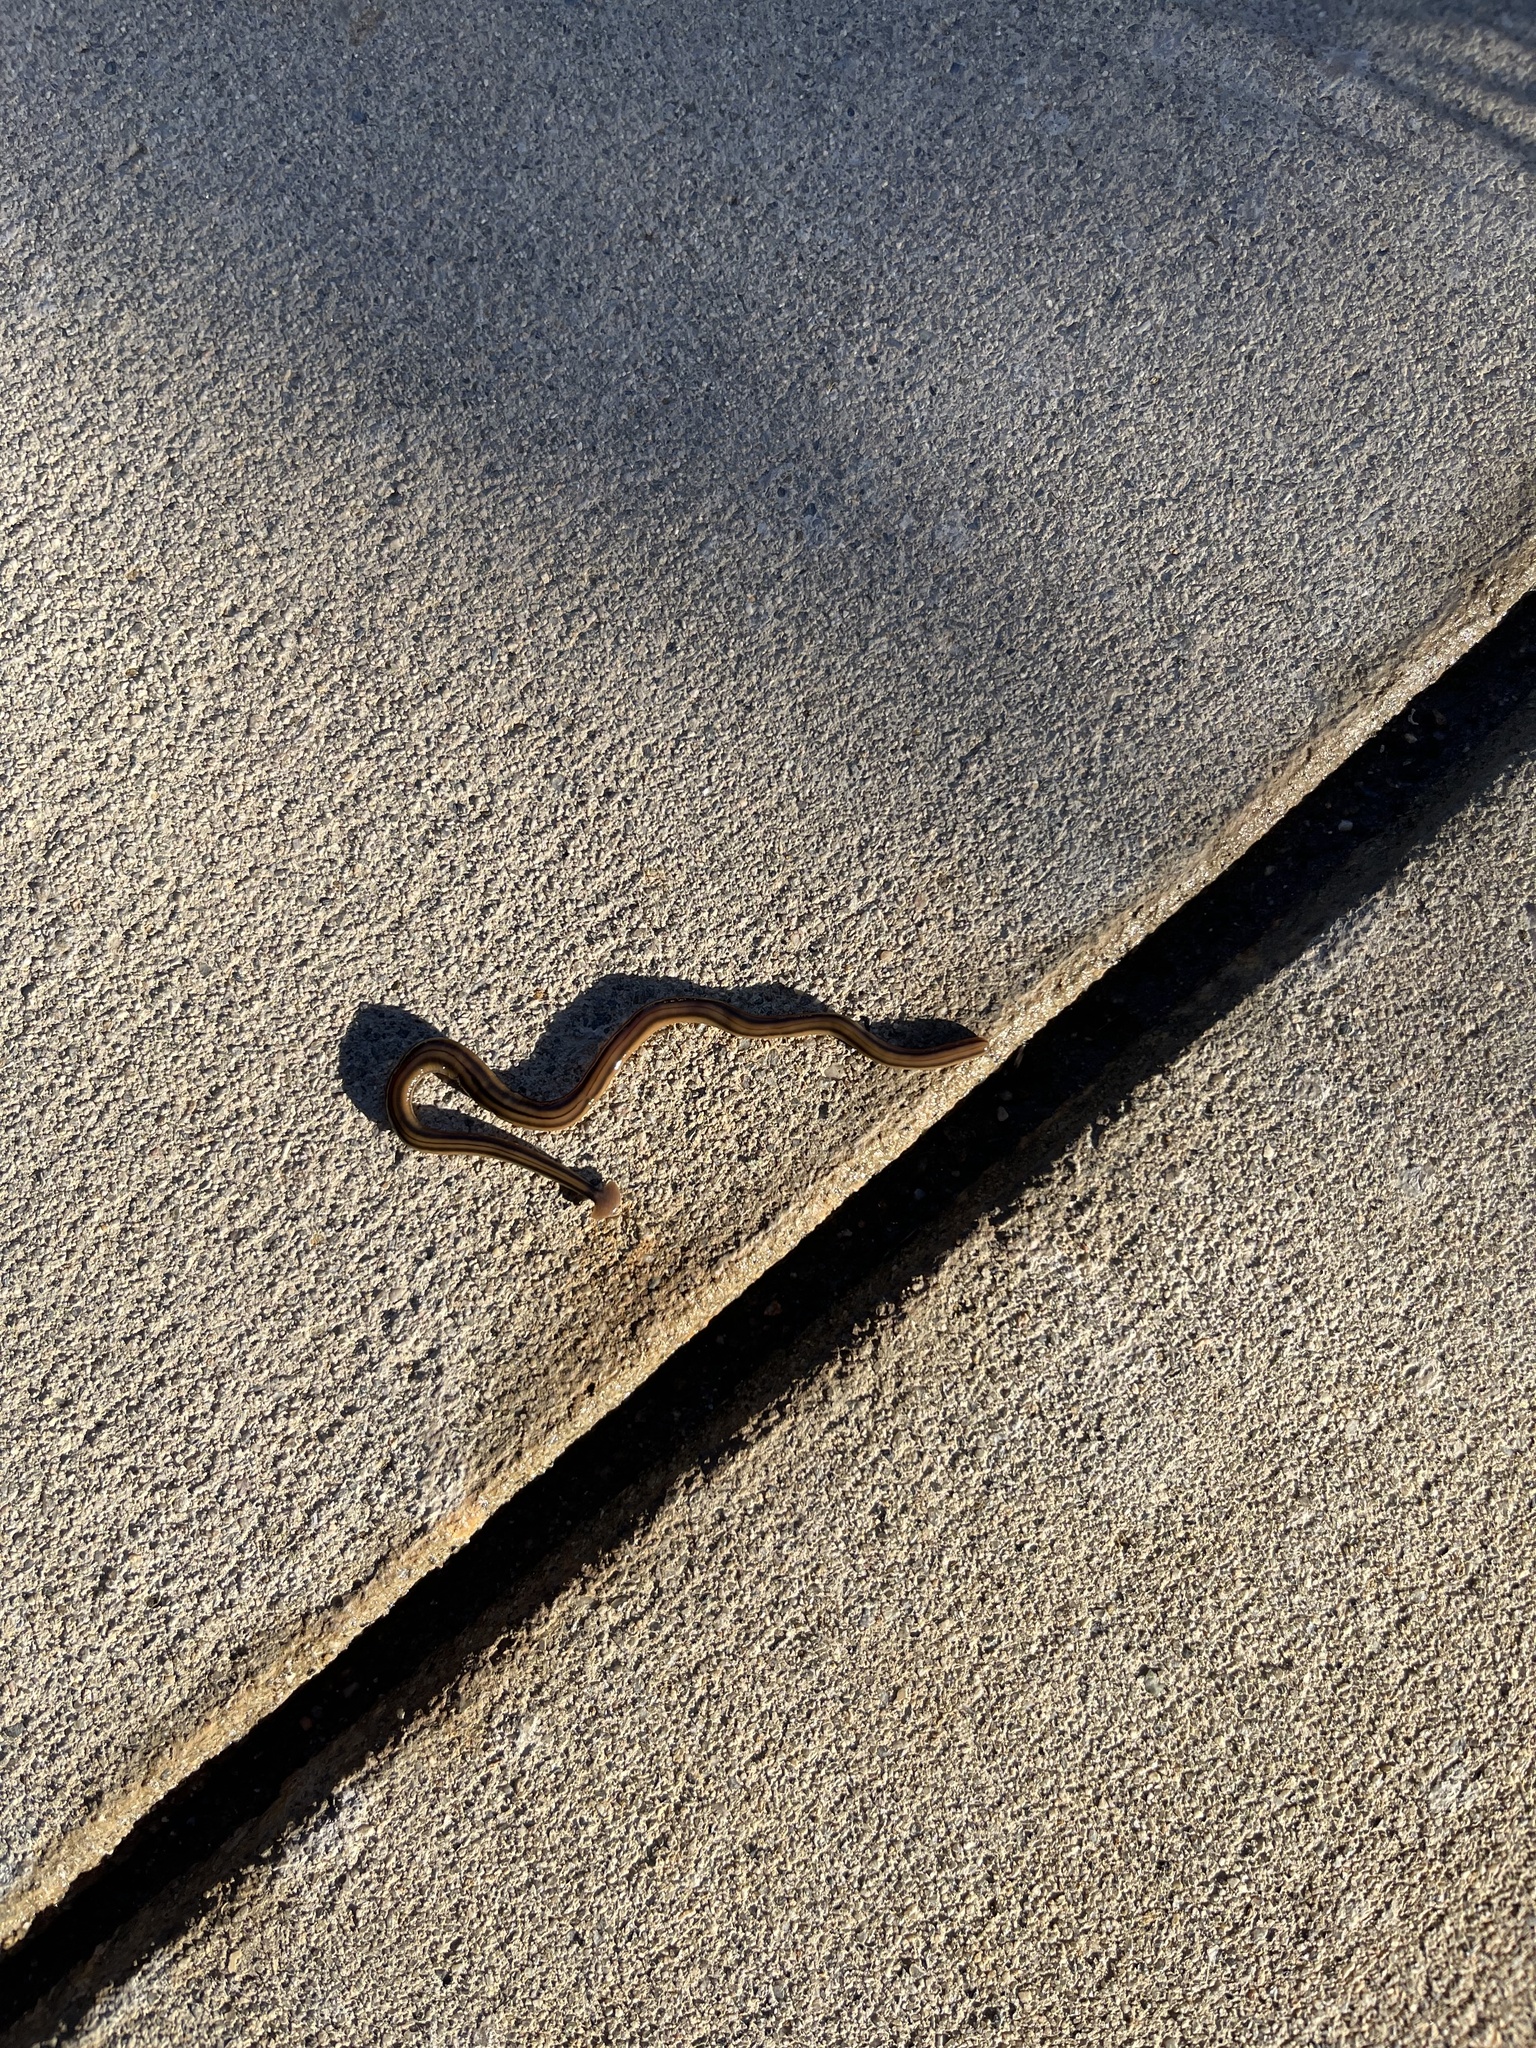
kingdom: Animalia
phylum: Platyhelminthes
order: Tricladida
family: Geoplanidae
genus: Bipalium
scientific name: Bipalium kewense
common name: Hammerhead flatworm
